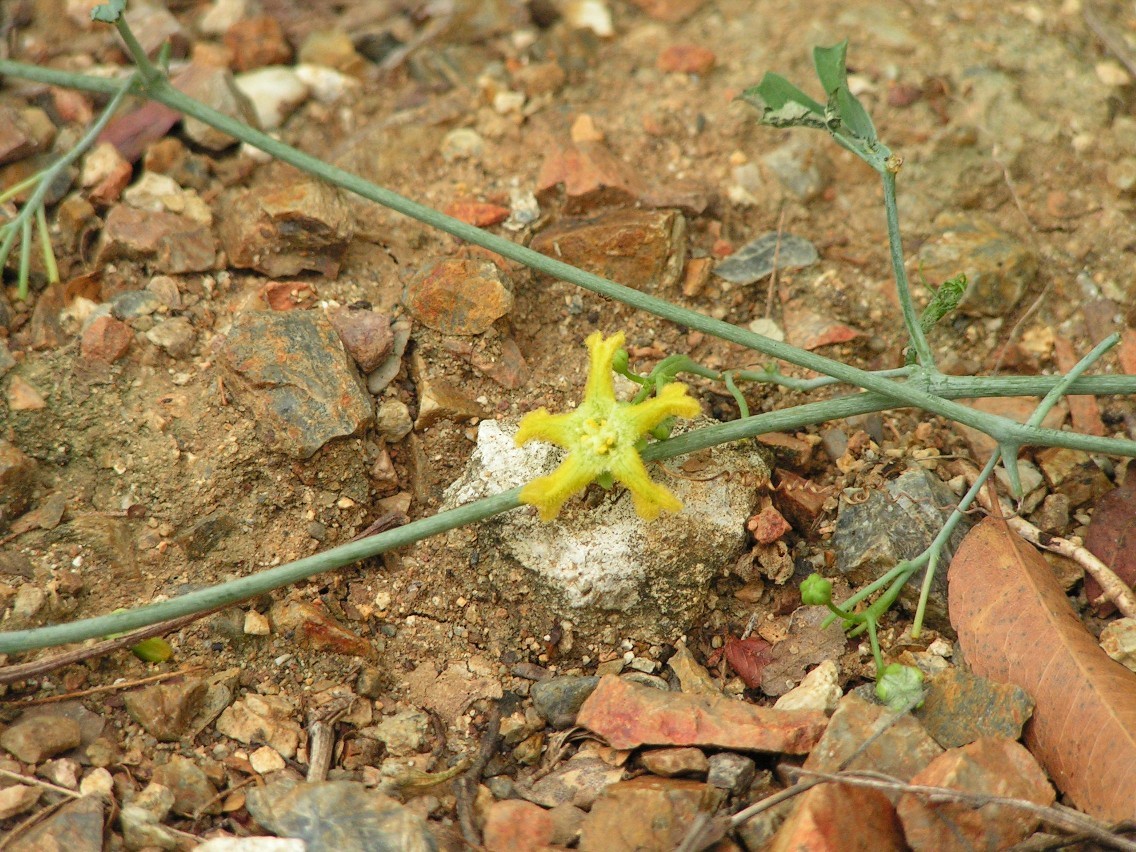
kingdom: Plantae
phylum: Tracheophyta
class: Magnoliopsida
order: Cucurbitales
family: Cucurbitaceae
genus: Ibervillea
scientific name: Ibervillea sonorae
